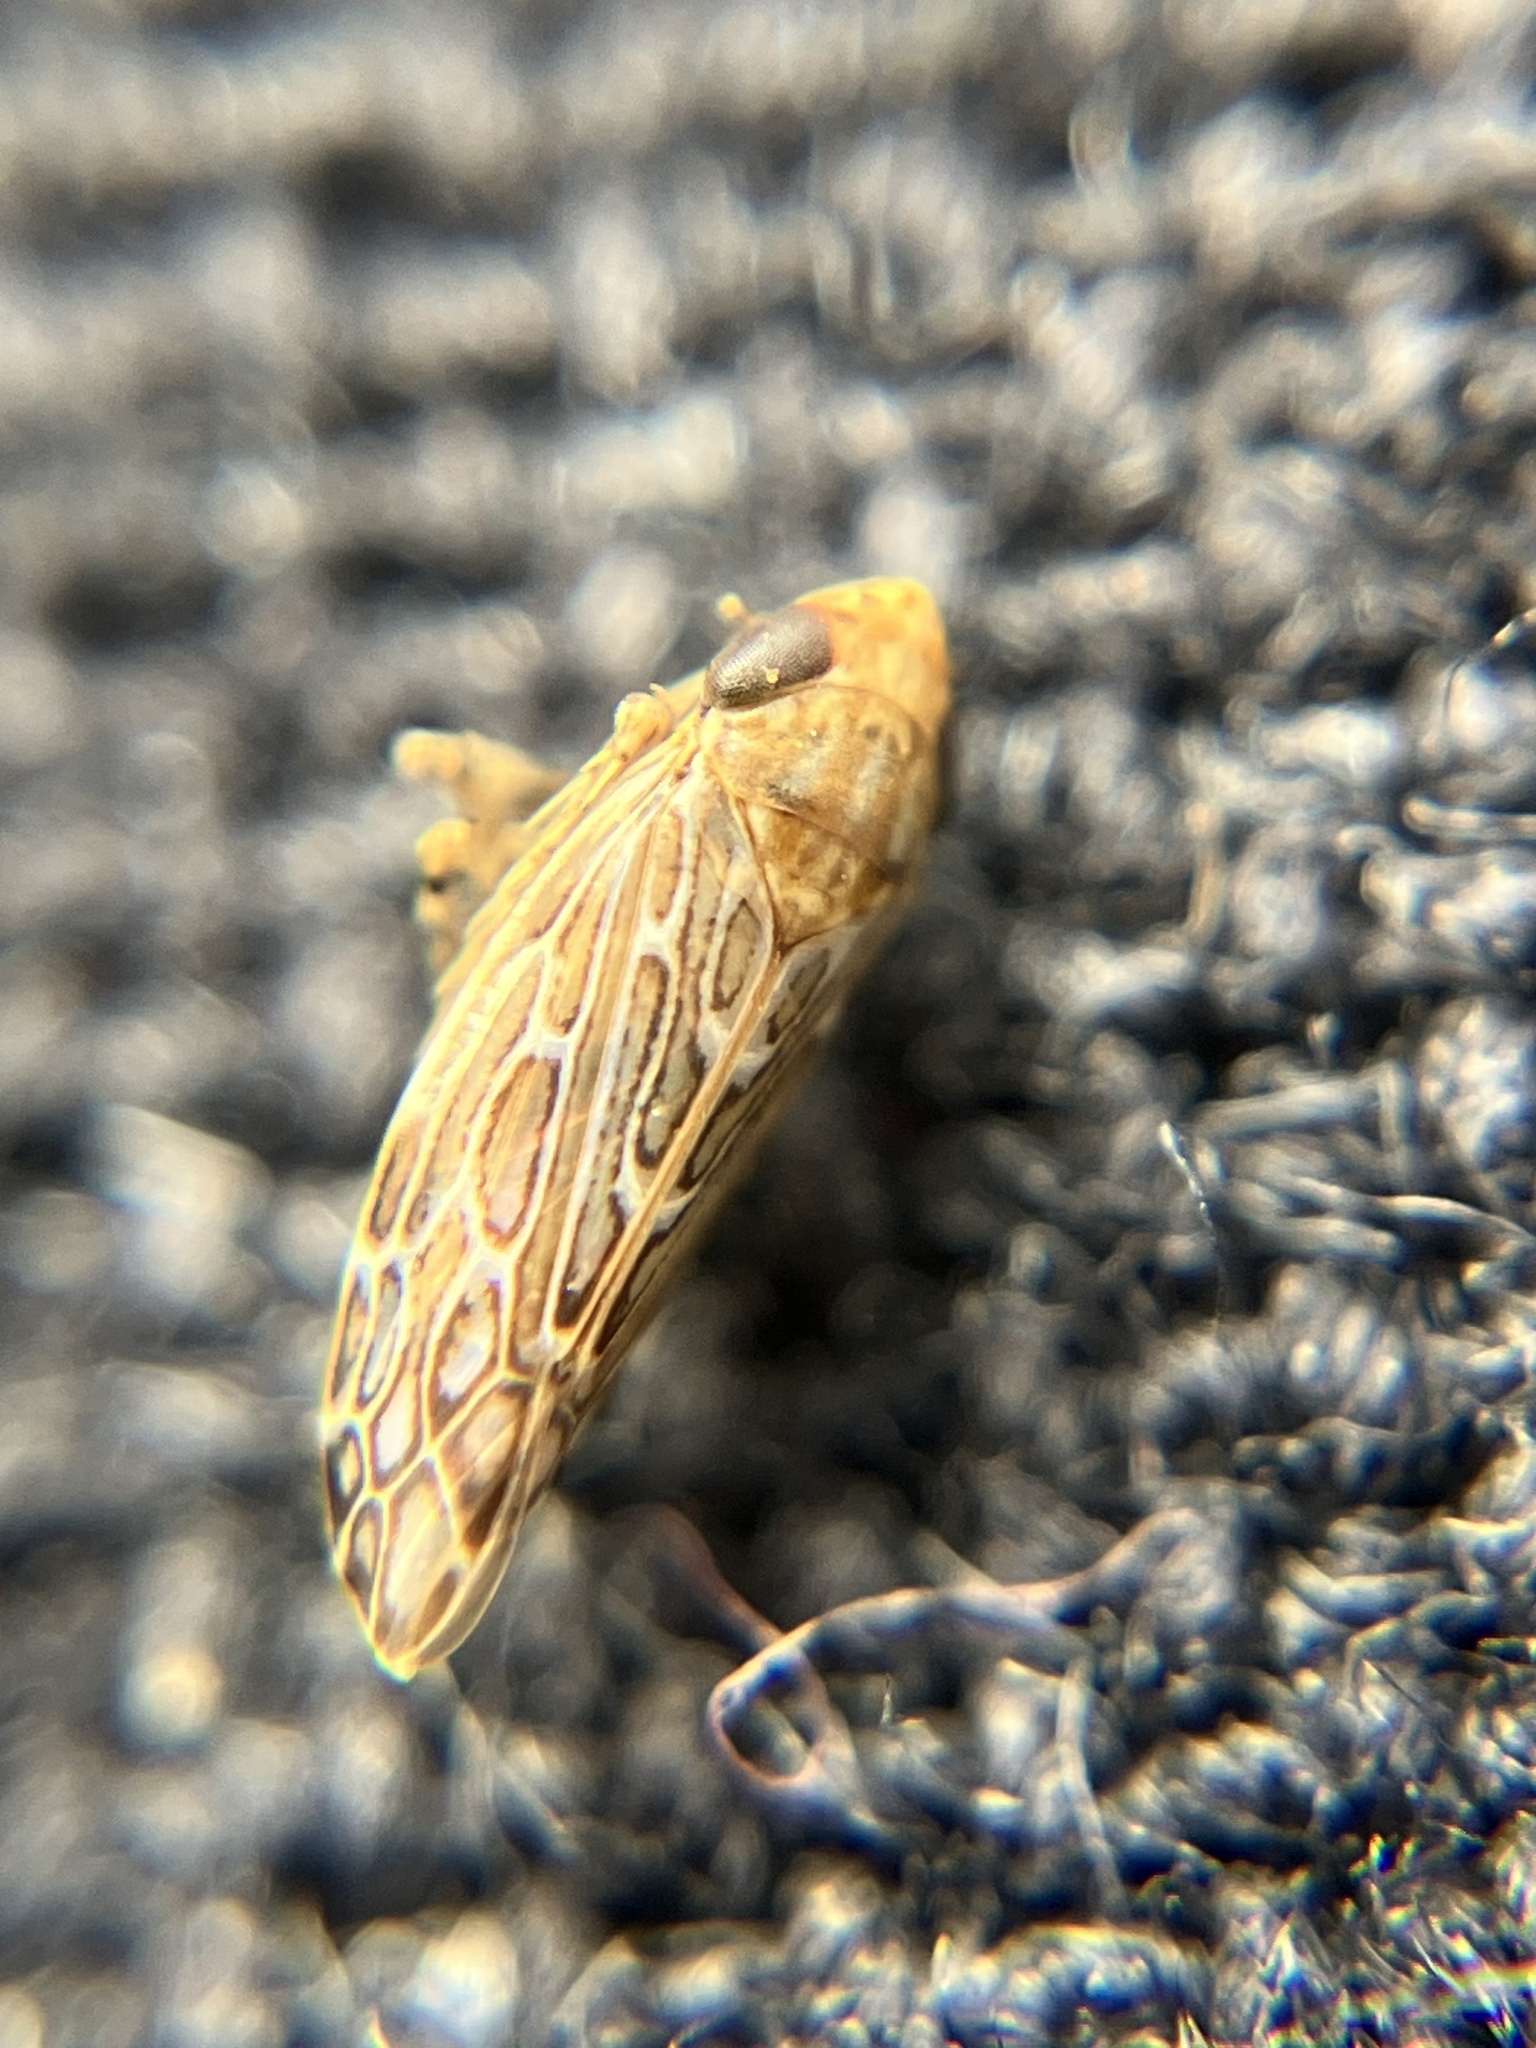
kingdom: Animalia
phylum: Arthropoda
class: Insecta
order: Hemiptera
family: Cicadellidae
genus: Matsumuratettix
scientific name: Matsumuratettix
